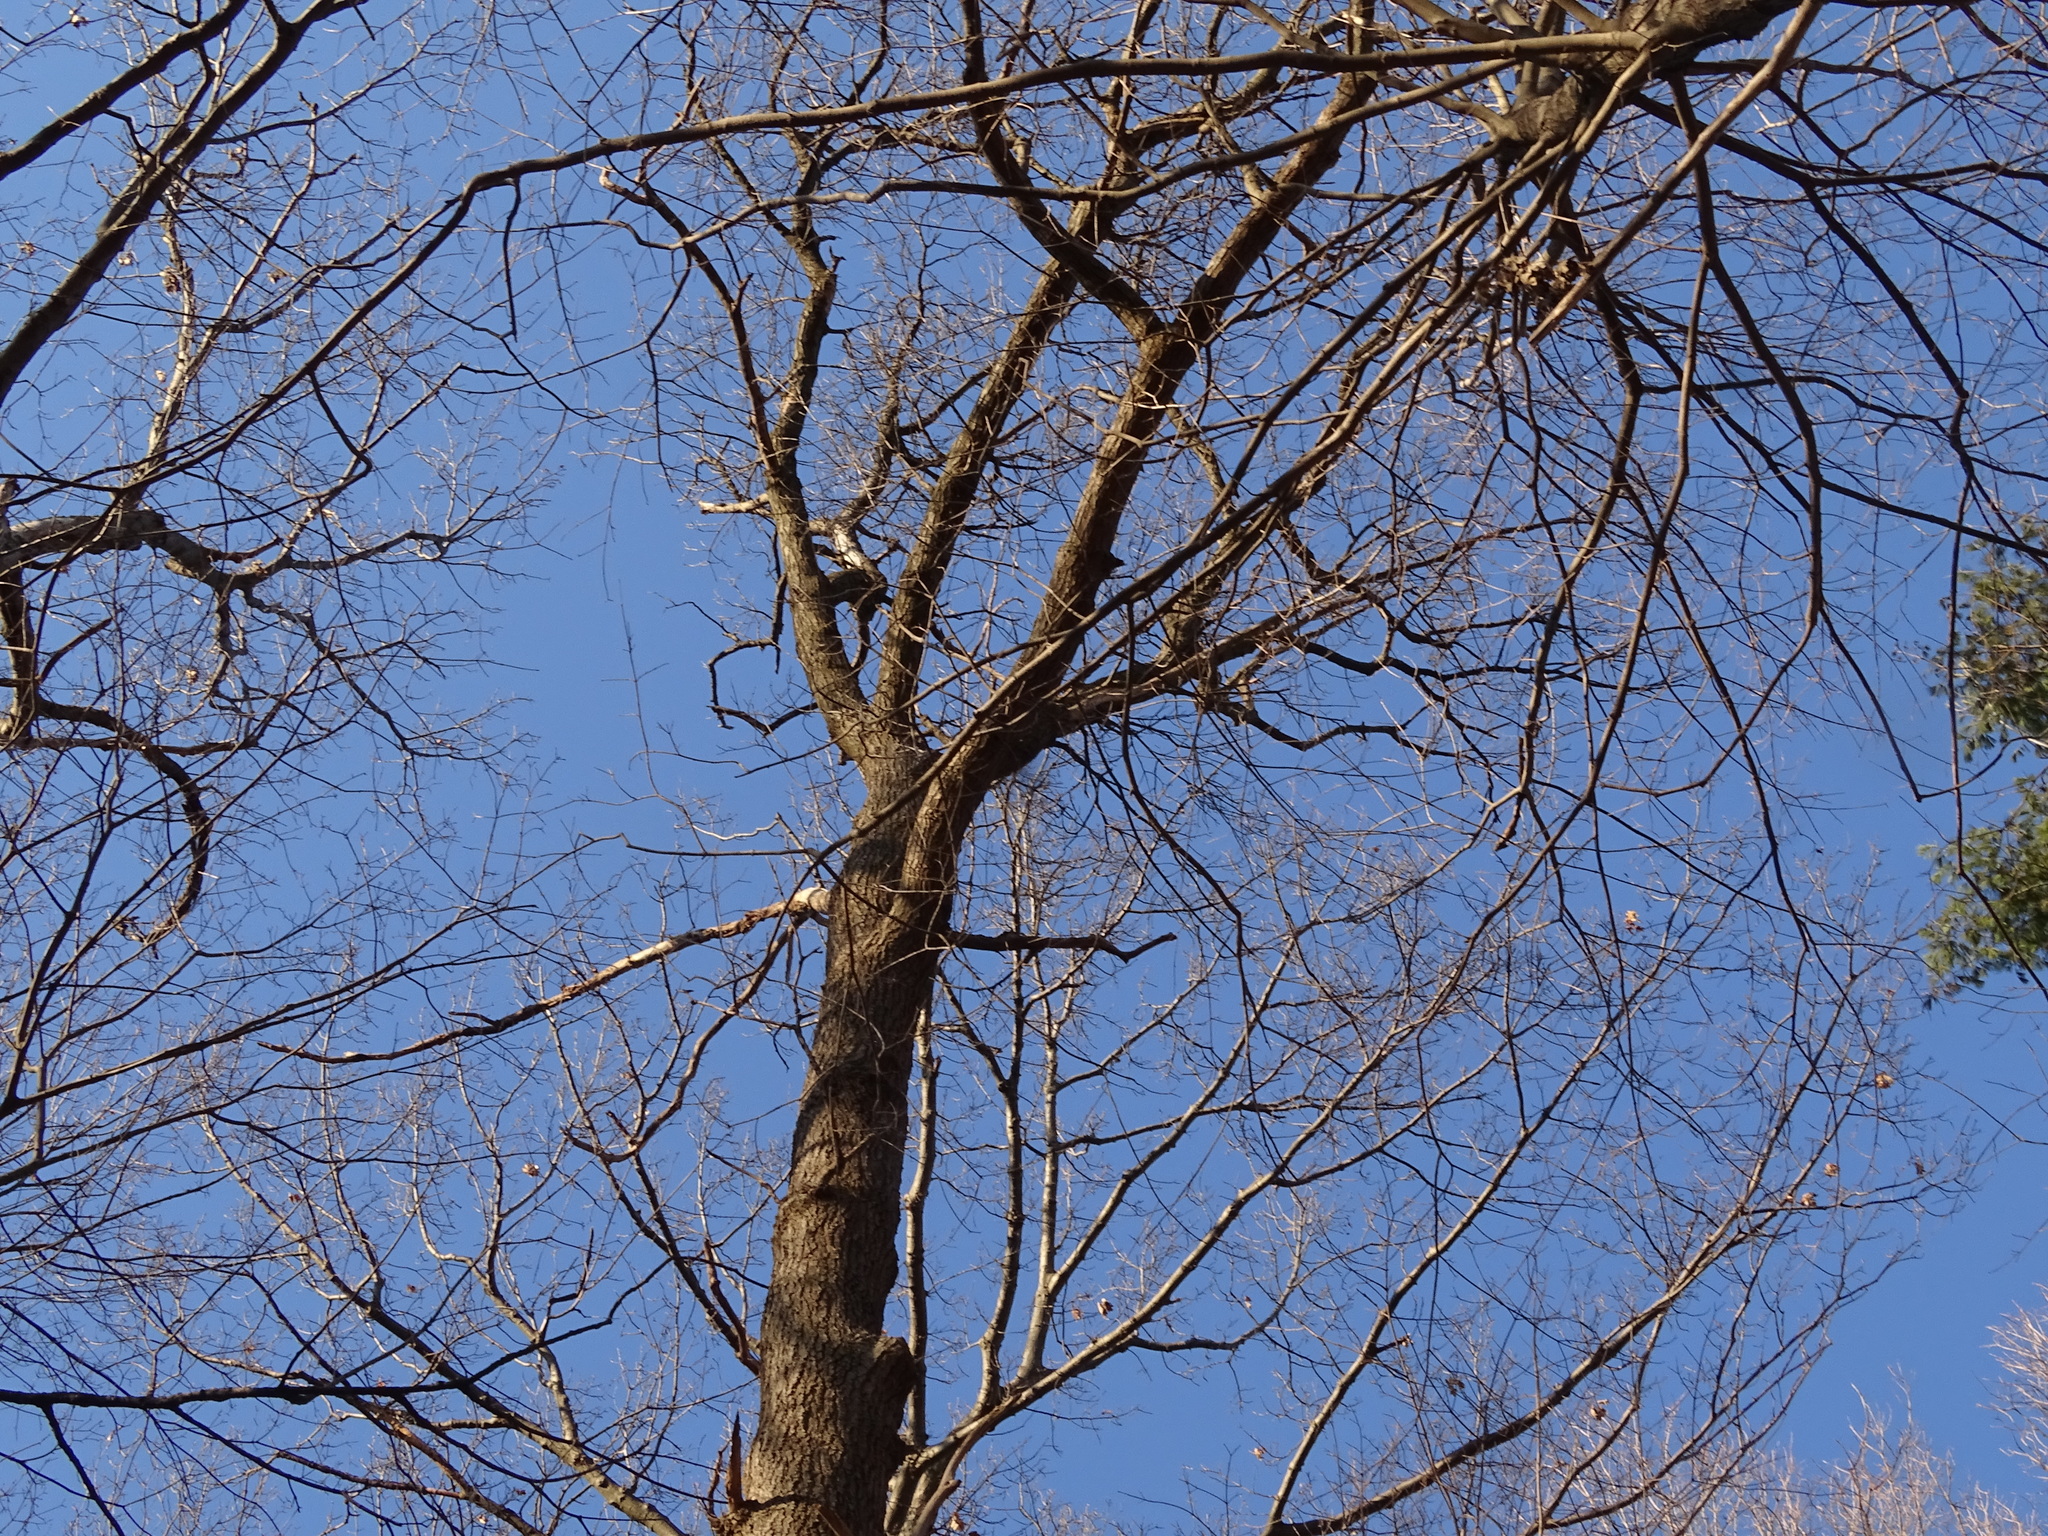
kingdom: Plantae
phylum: Tracheophyta
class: Magnoliopsida
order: Fagales
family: Fagaceae
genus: Quercus
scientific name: Quercus velutina
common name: Black oak
